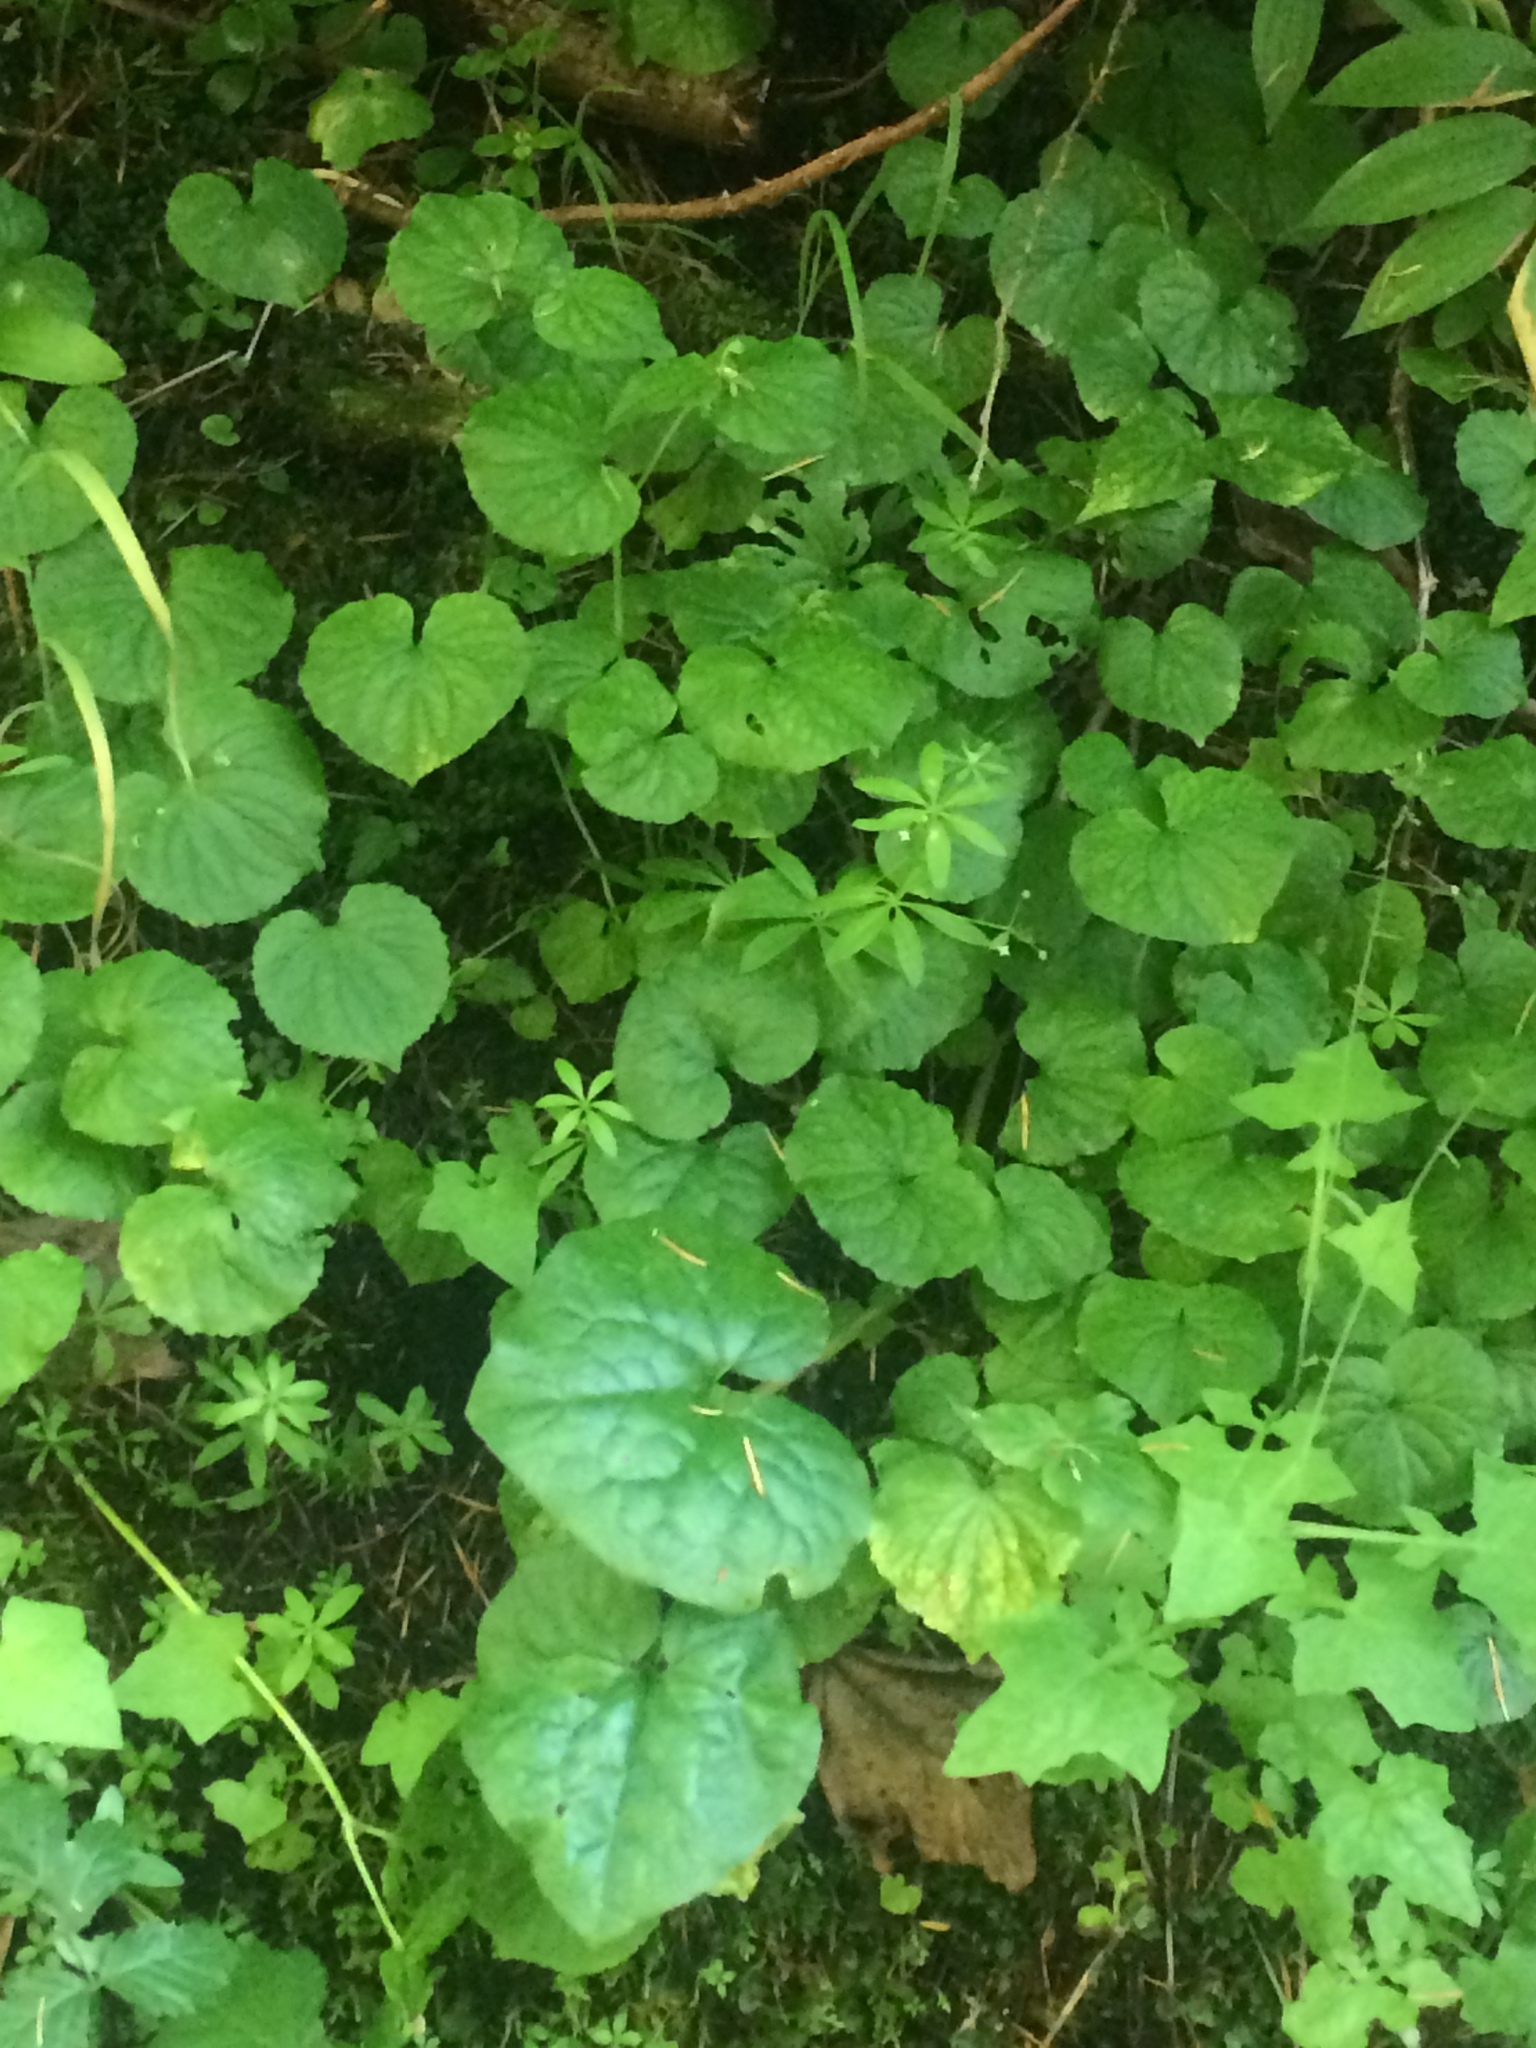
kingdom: Plantae
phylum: Tracheophyta
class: Magnoliopsida
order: Malpighiales
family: Violaceae
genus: Viola
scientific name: Viola glabella
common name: Stream violet
